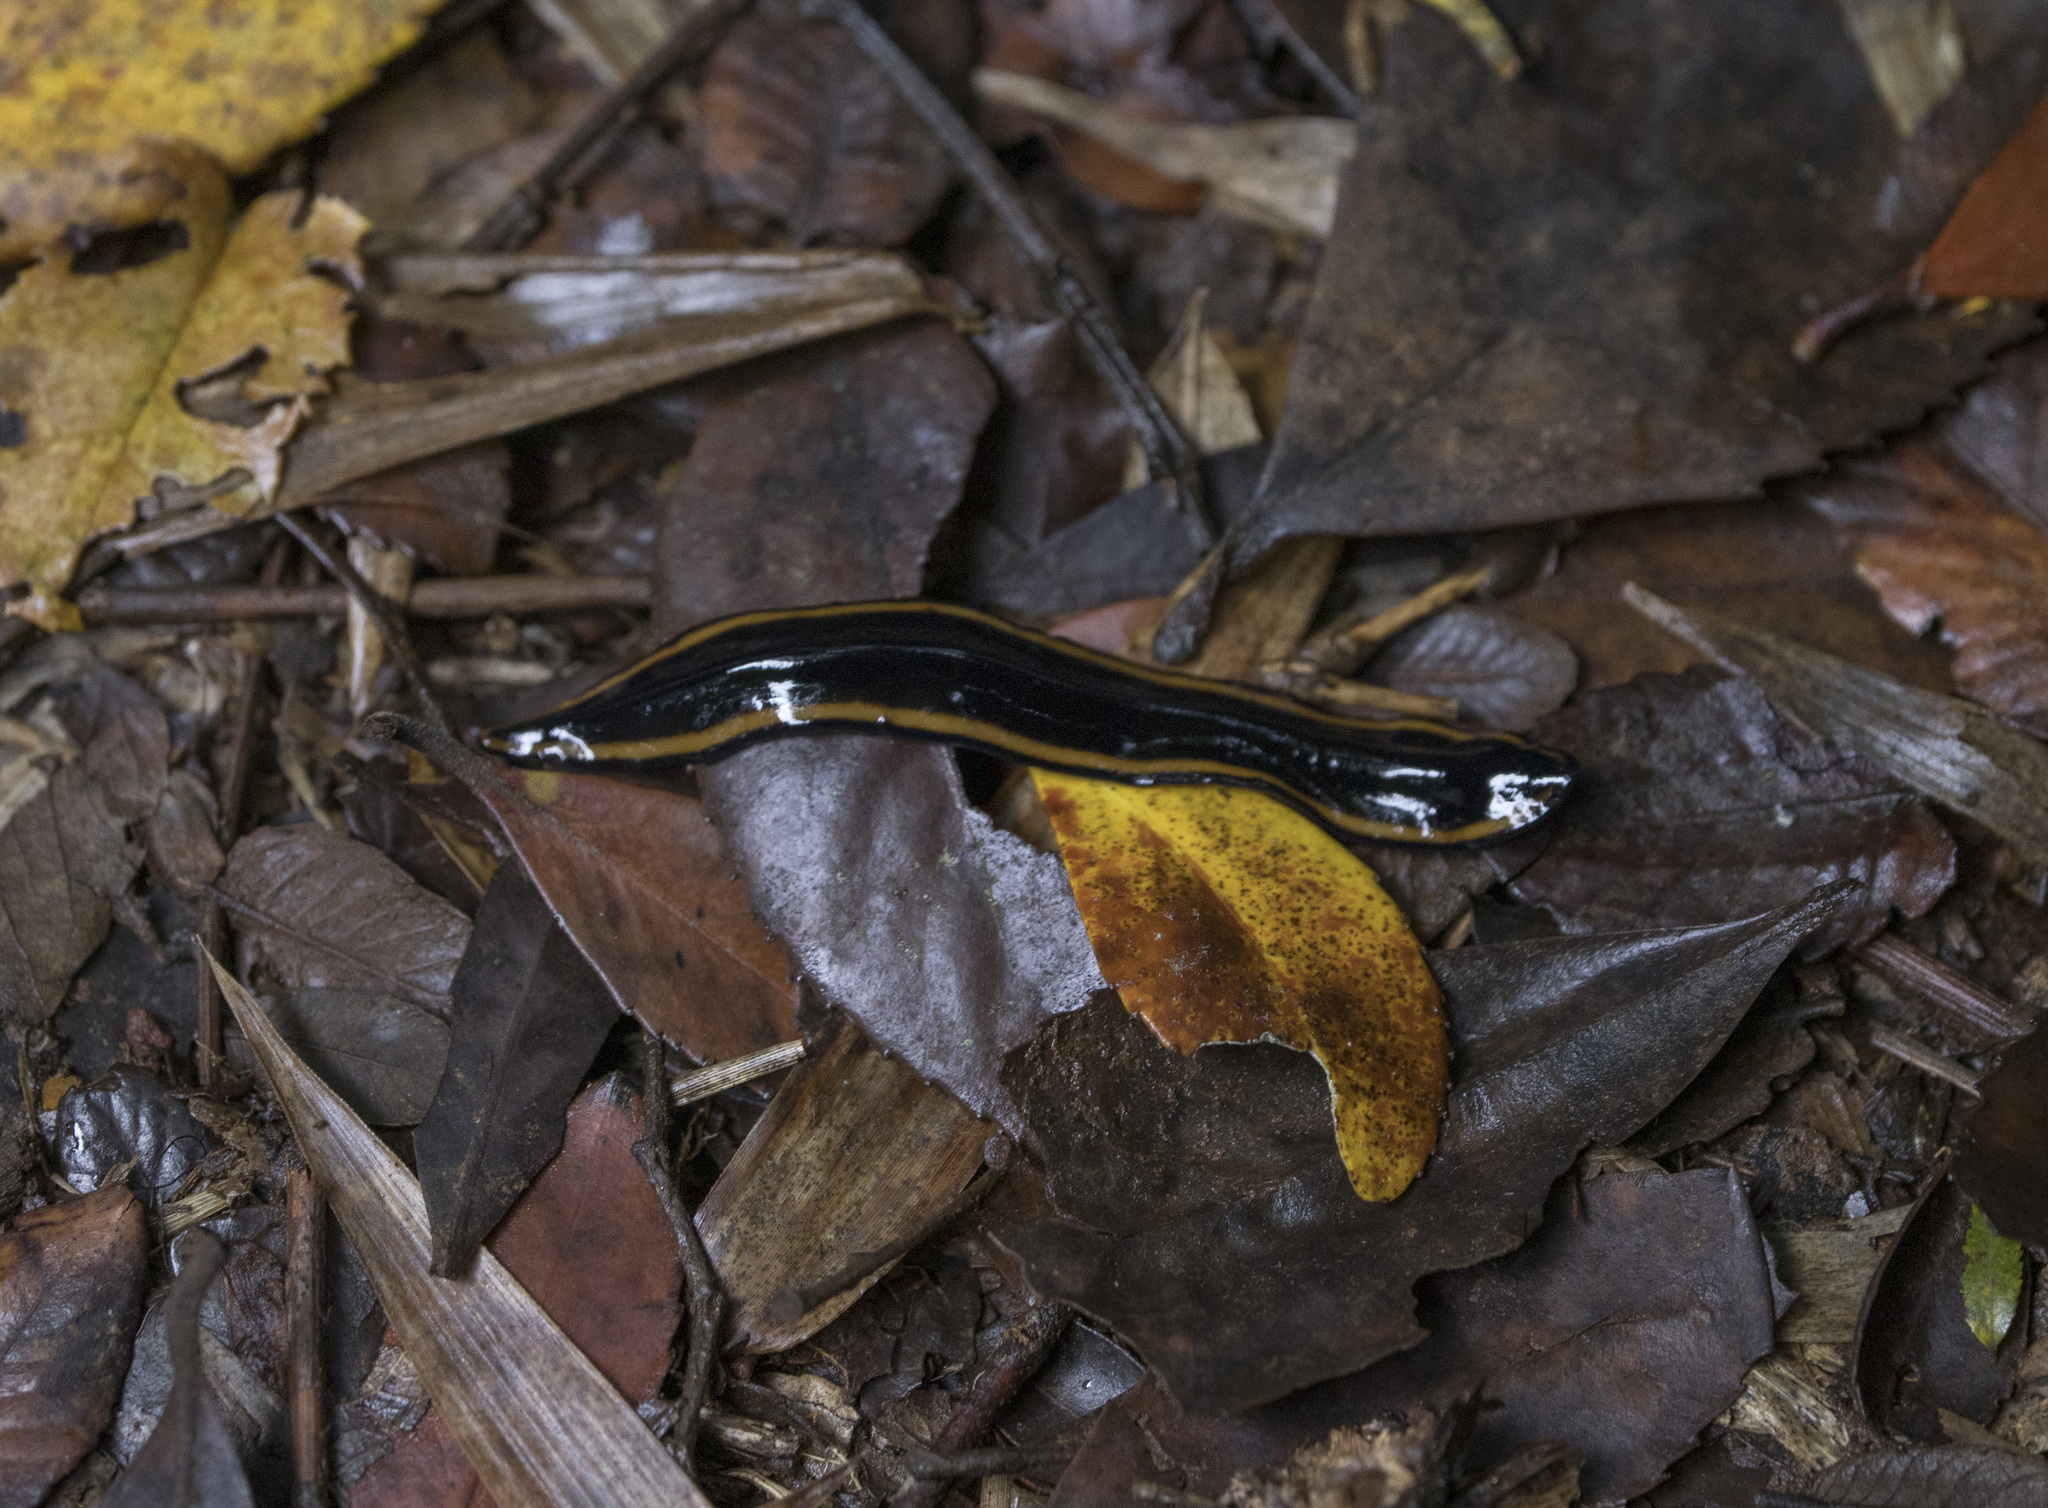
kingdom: Animalia
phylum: Platyhelminthes
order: Tricladida
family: Geoplanidae
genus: Polycladus
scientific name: Polycladus gayi
